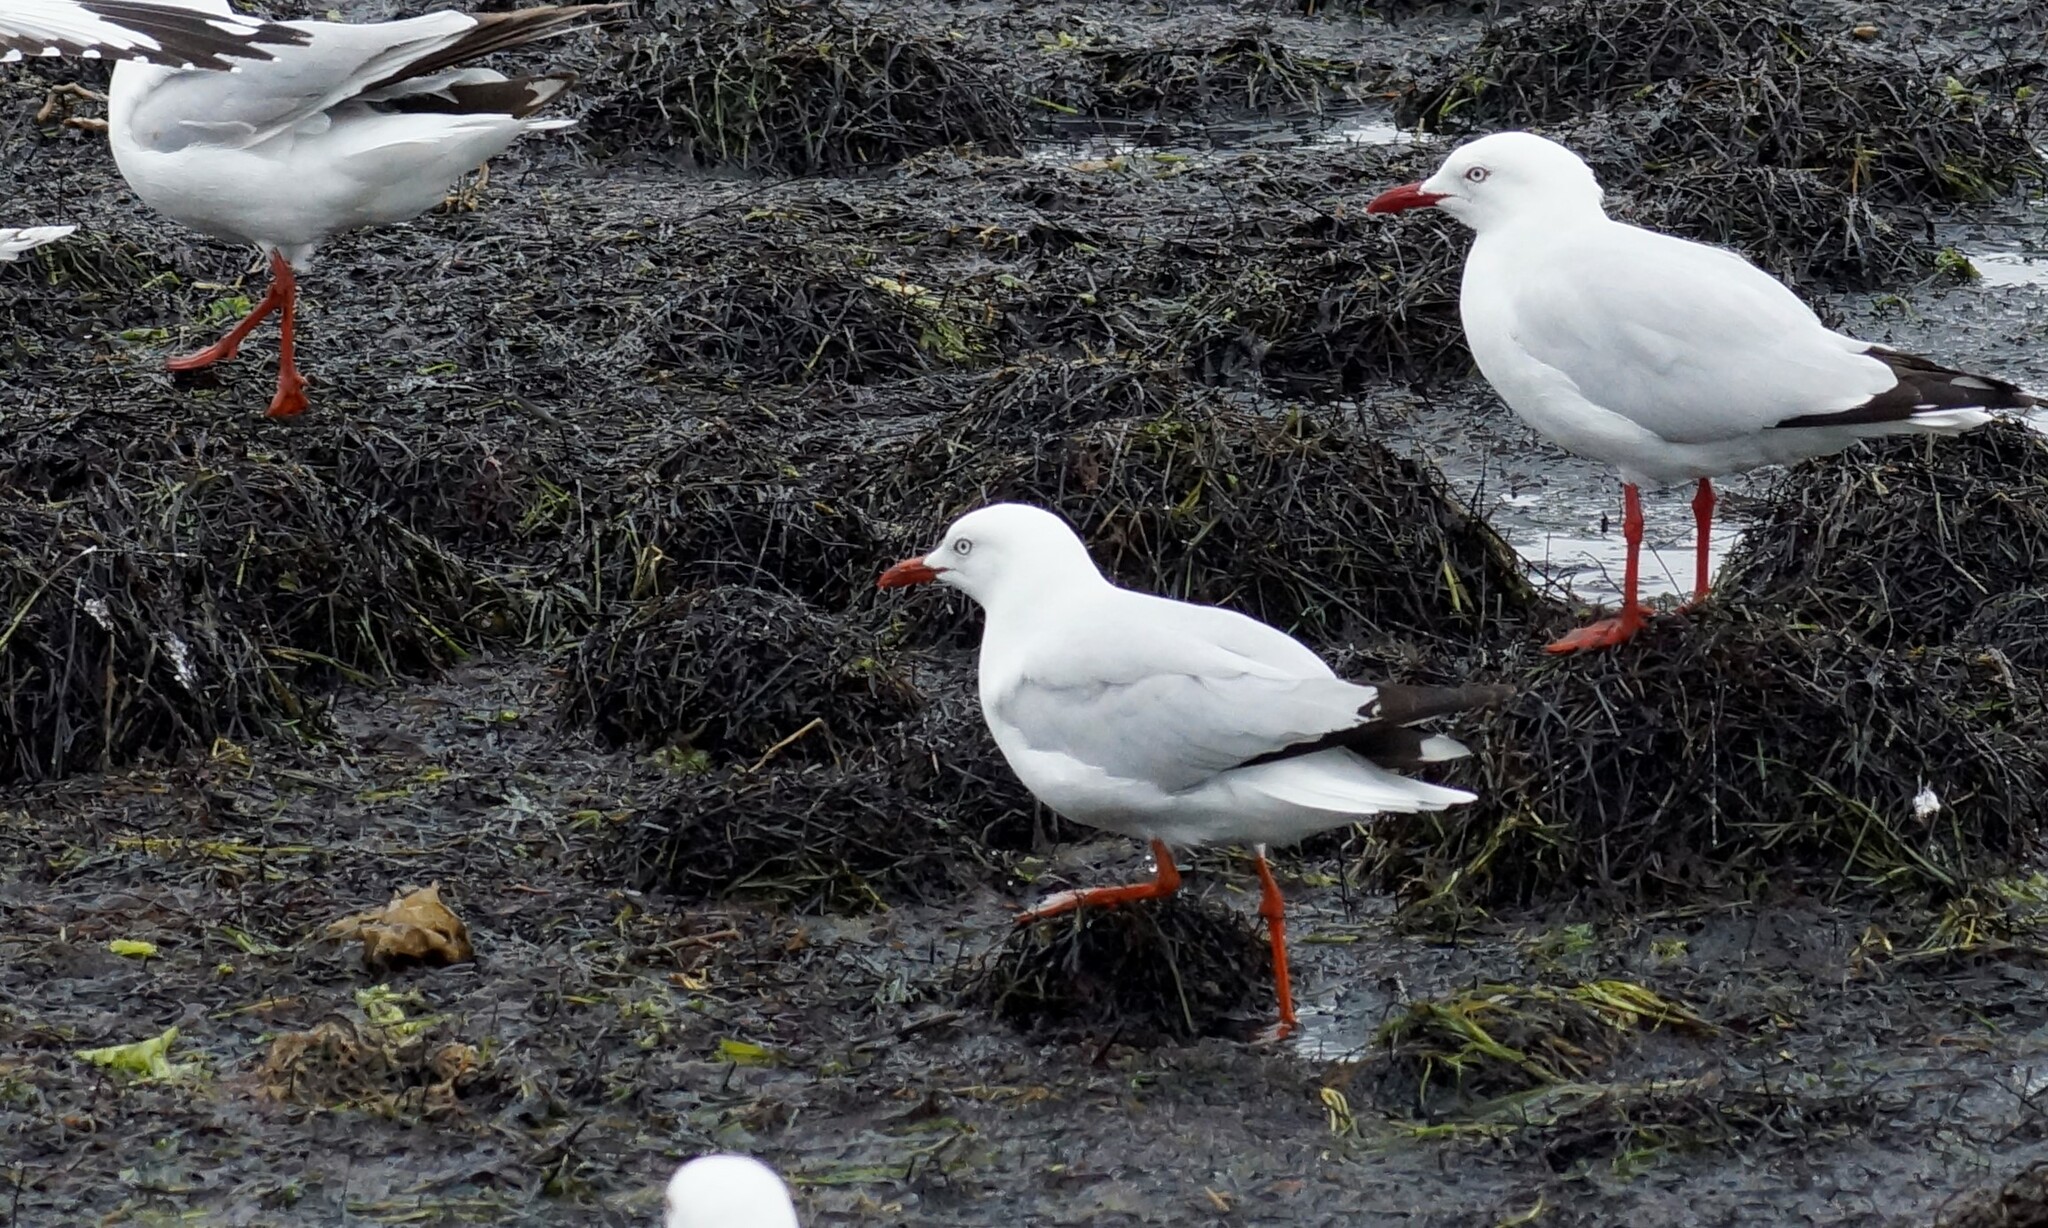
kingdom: Animalia
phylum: Chordata
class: Aves
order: Charadriiformes
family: Laridae
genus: Chroicocephalus
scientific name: Chroicocephalus novaehollandiae
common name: Silver gull
